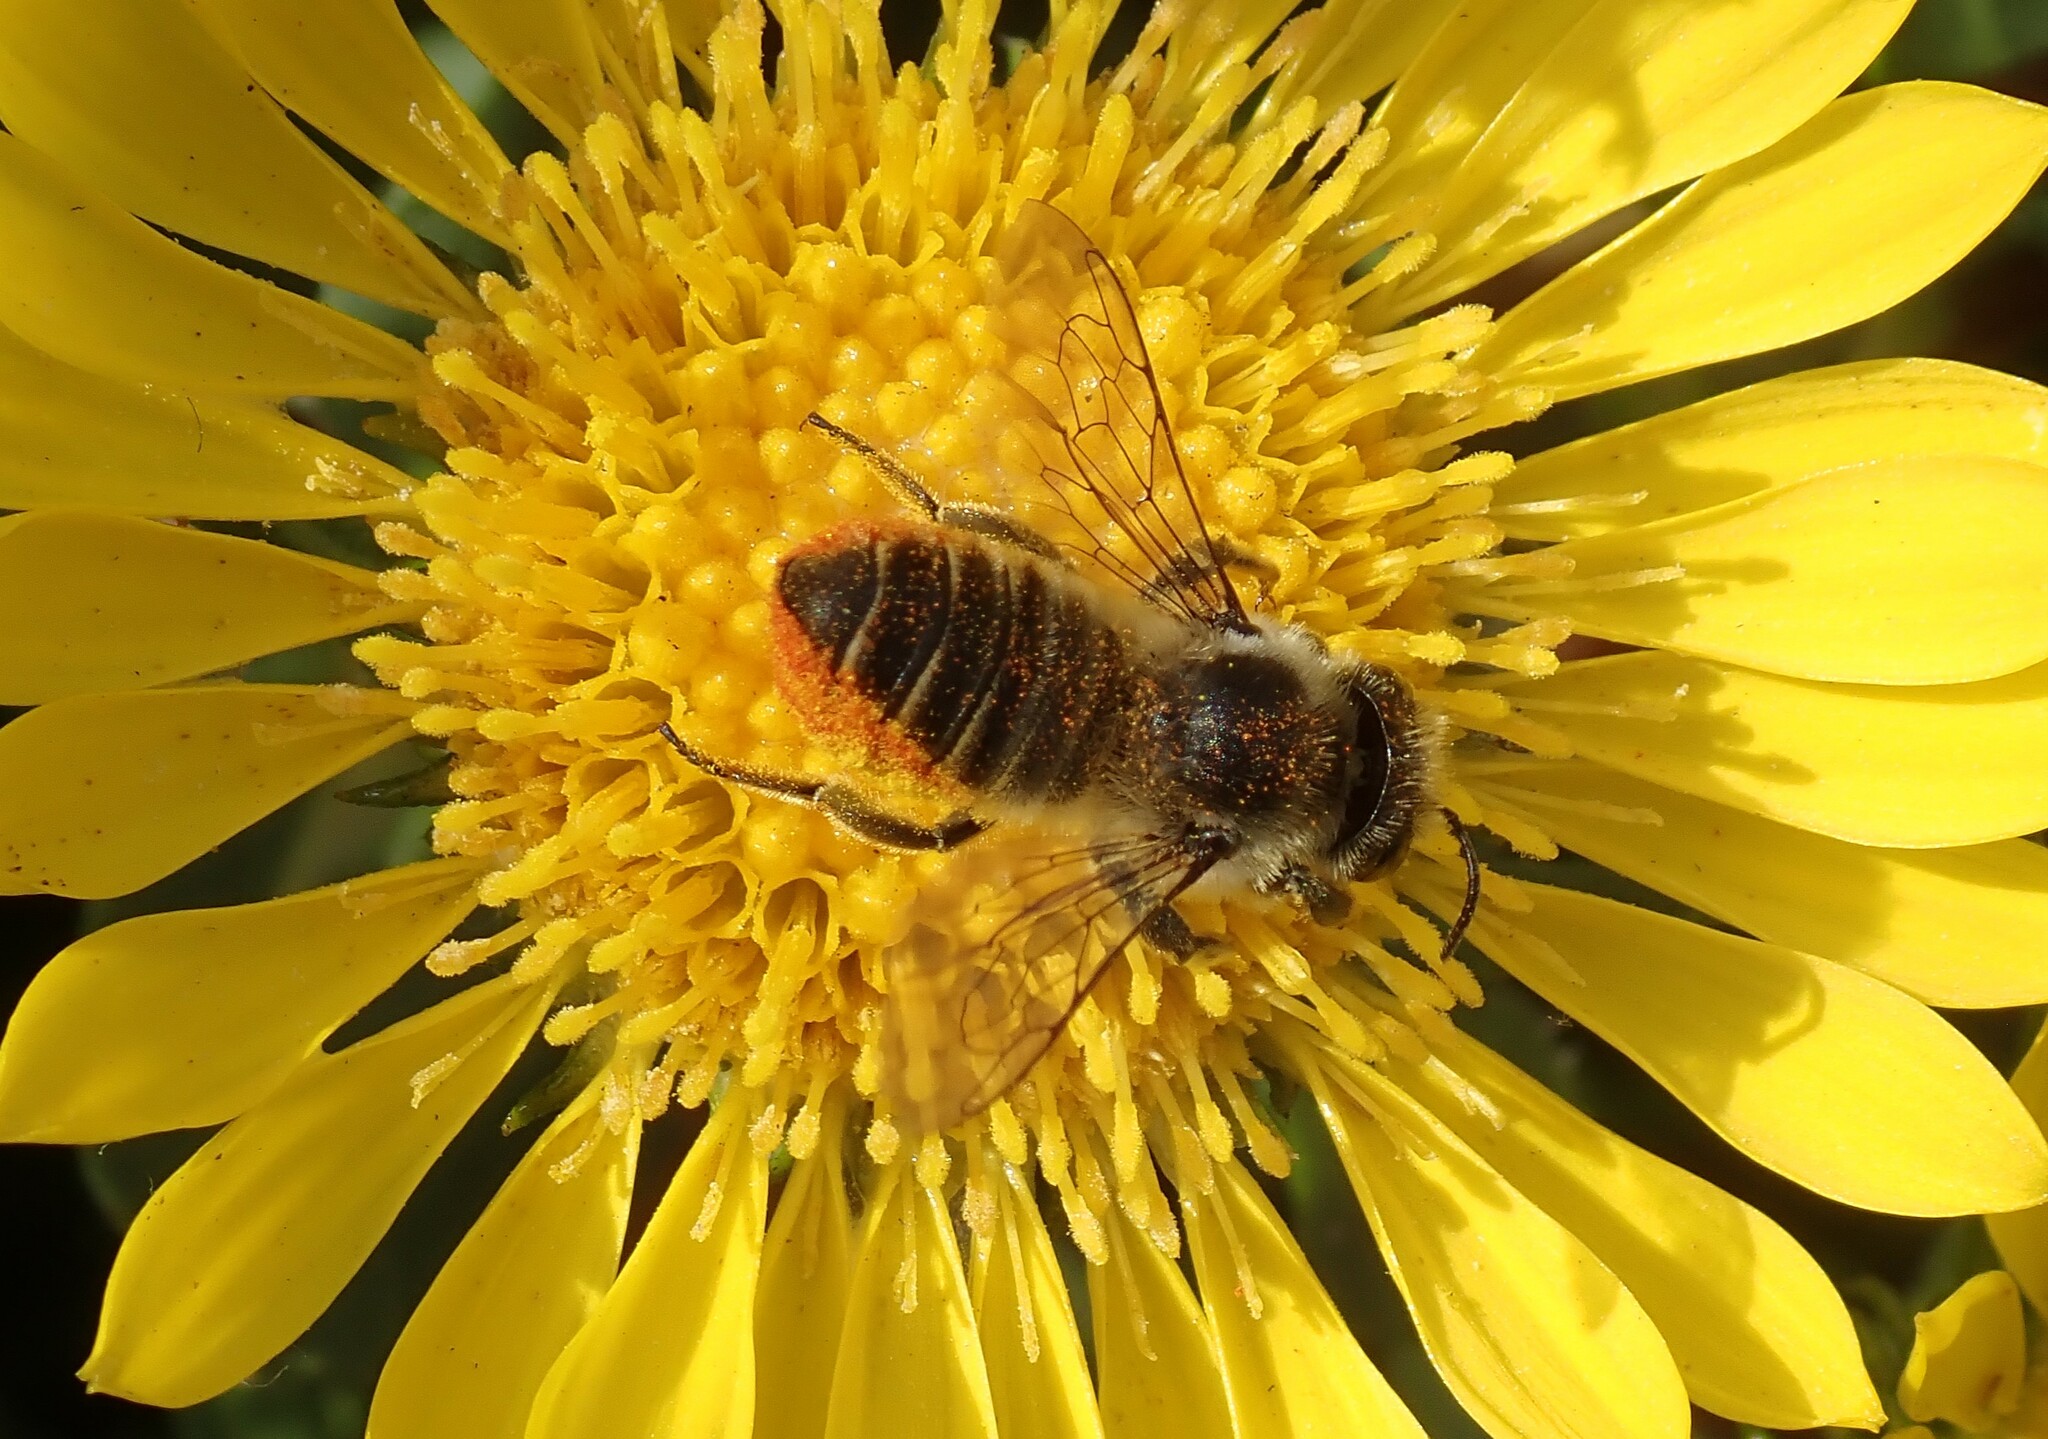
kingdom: Animalia
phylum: Arthropoda
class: Insecta
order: Hymenoptera
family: Megachilidae
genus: Megachile
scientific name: Megachile perihirta
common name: Western leafcutter
